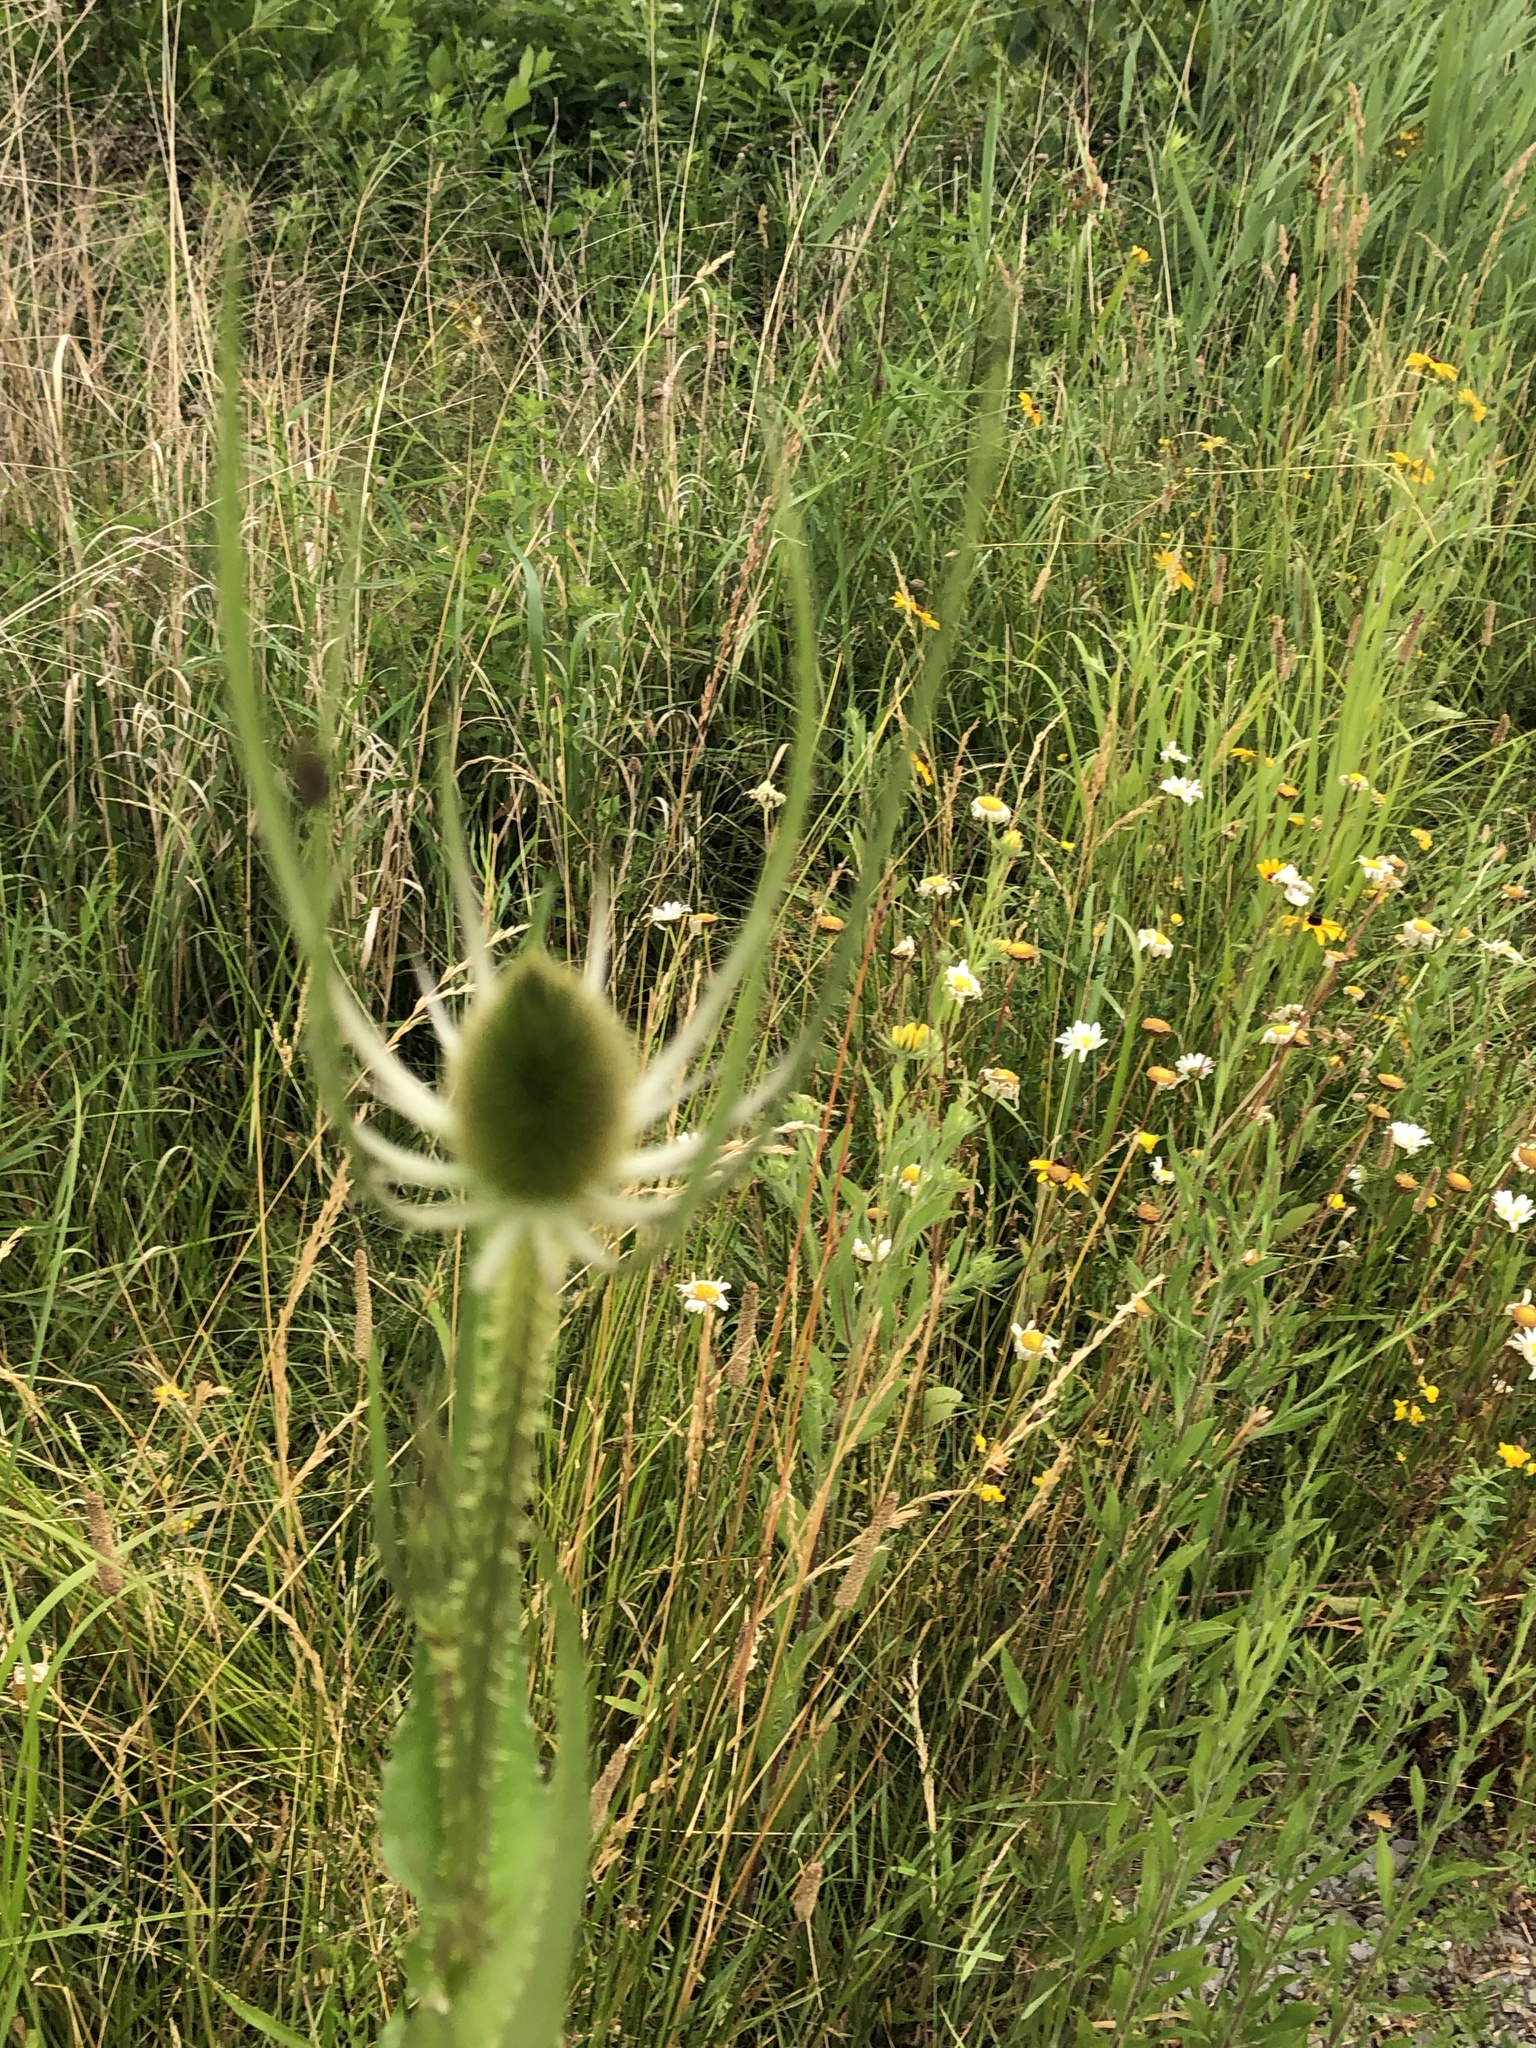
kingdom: Plantae
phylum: Tracheophyta
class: Magnoliopsida
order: Dipsacales
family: Caprifoliaceae
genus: Dipsacus
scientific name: Dipsacus fullonum
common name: Teasel
